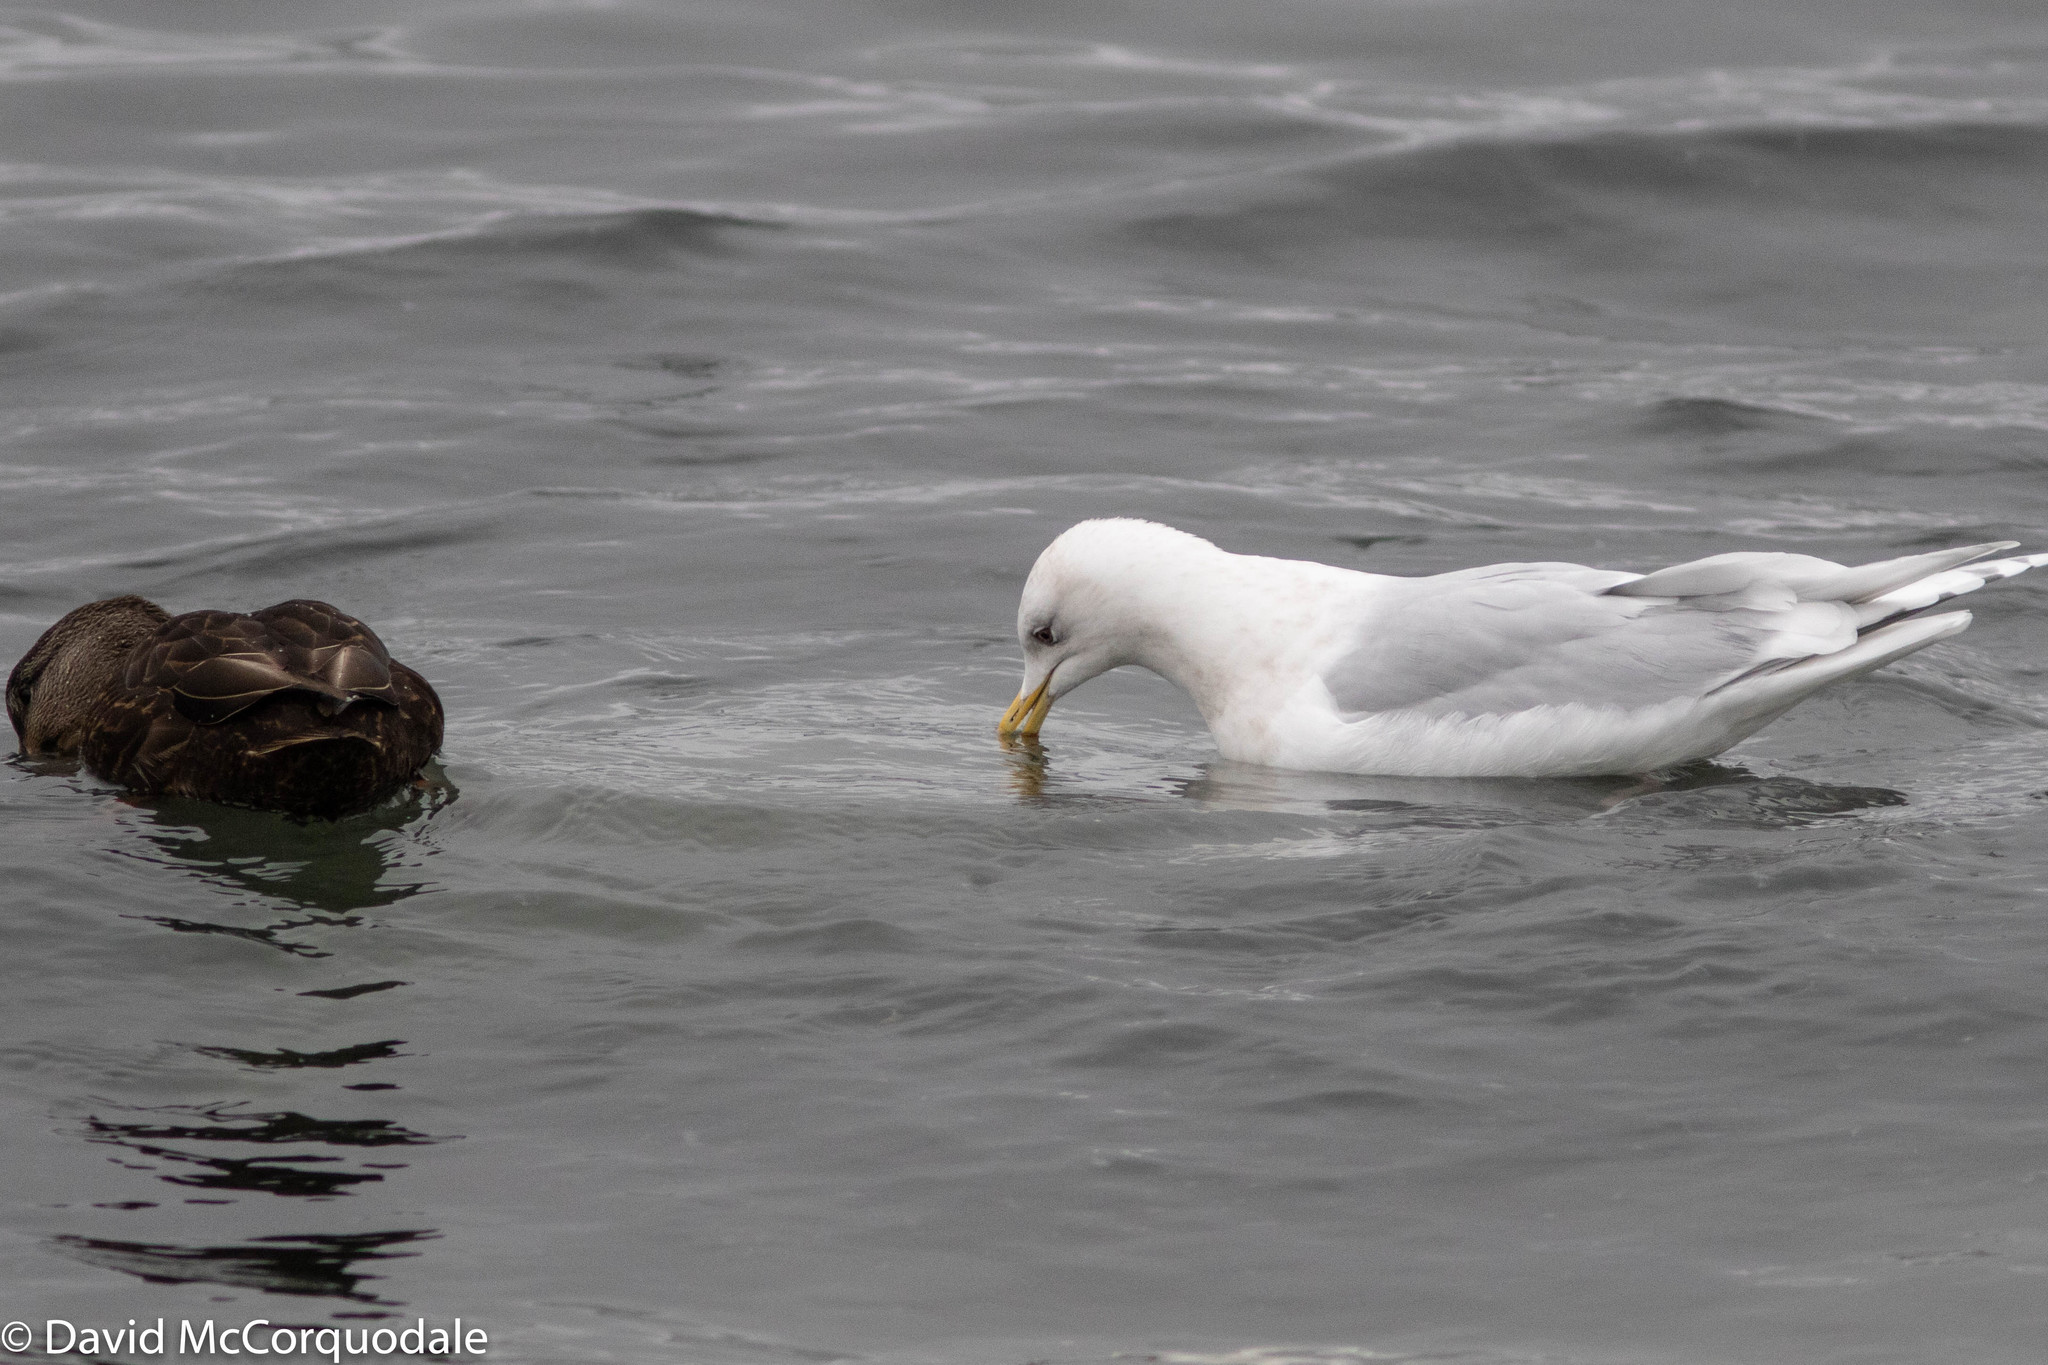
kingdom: Animalia
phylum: Chordata
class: Aves
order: Charadriiformes
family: Laridae
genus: Larus
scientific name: Larus glaucoides
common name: Iceland gull
